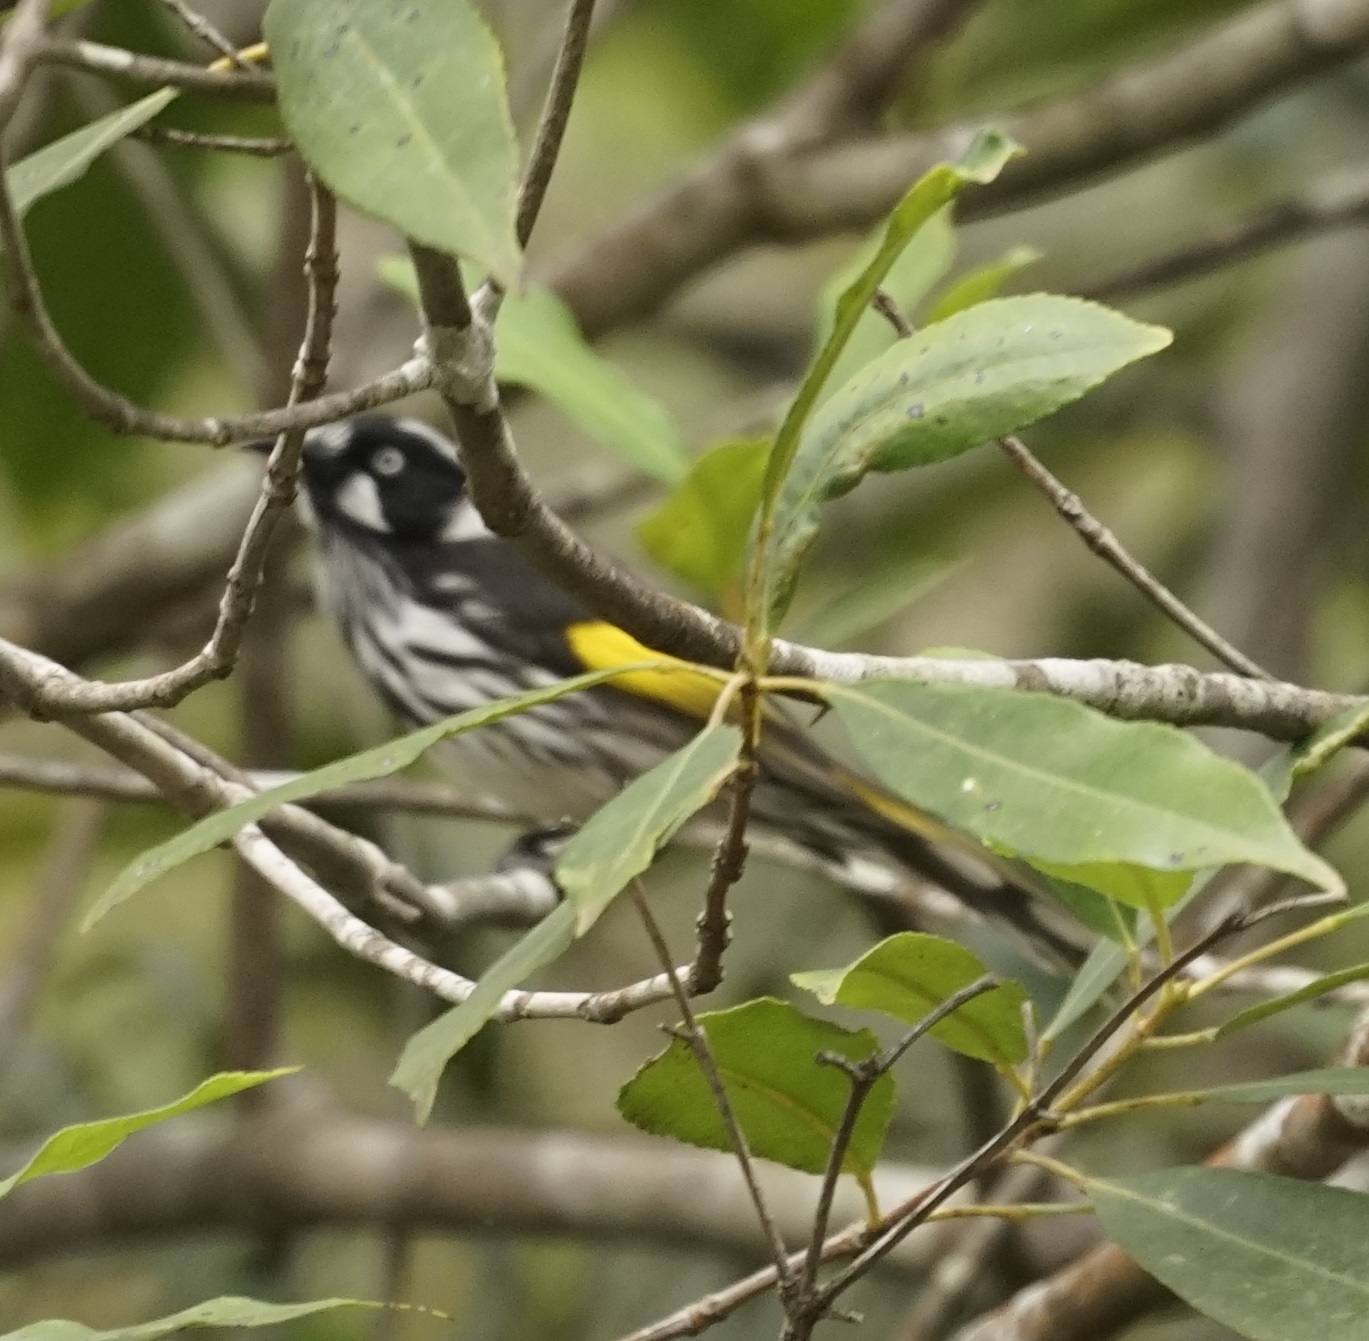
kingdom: Animalia
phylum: Chordata
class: Aves
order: Passeriformes
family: Meliphagidae
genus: Phylidonyris
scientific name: Phylidonyris novaehollandiae
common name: New holland honeyeater
